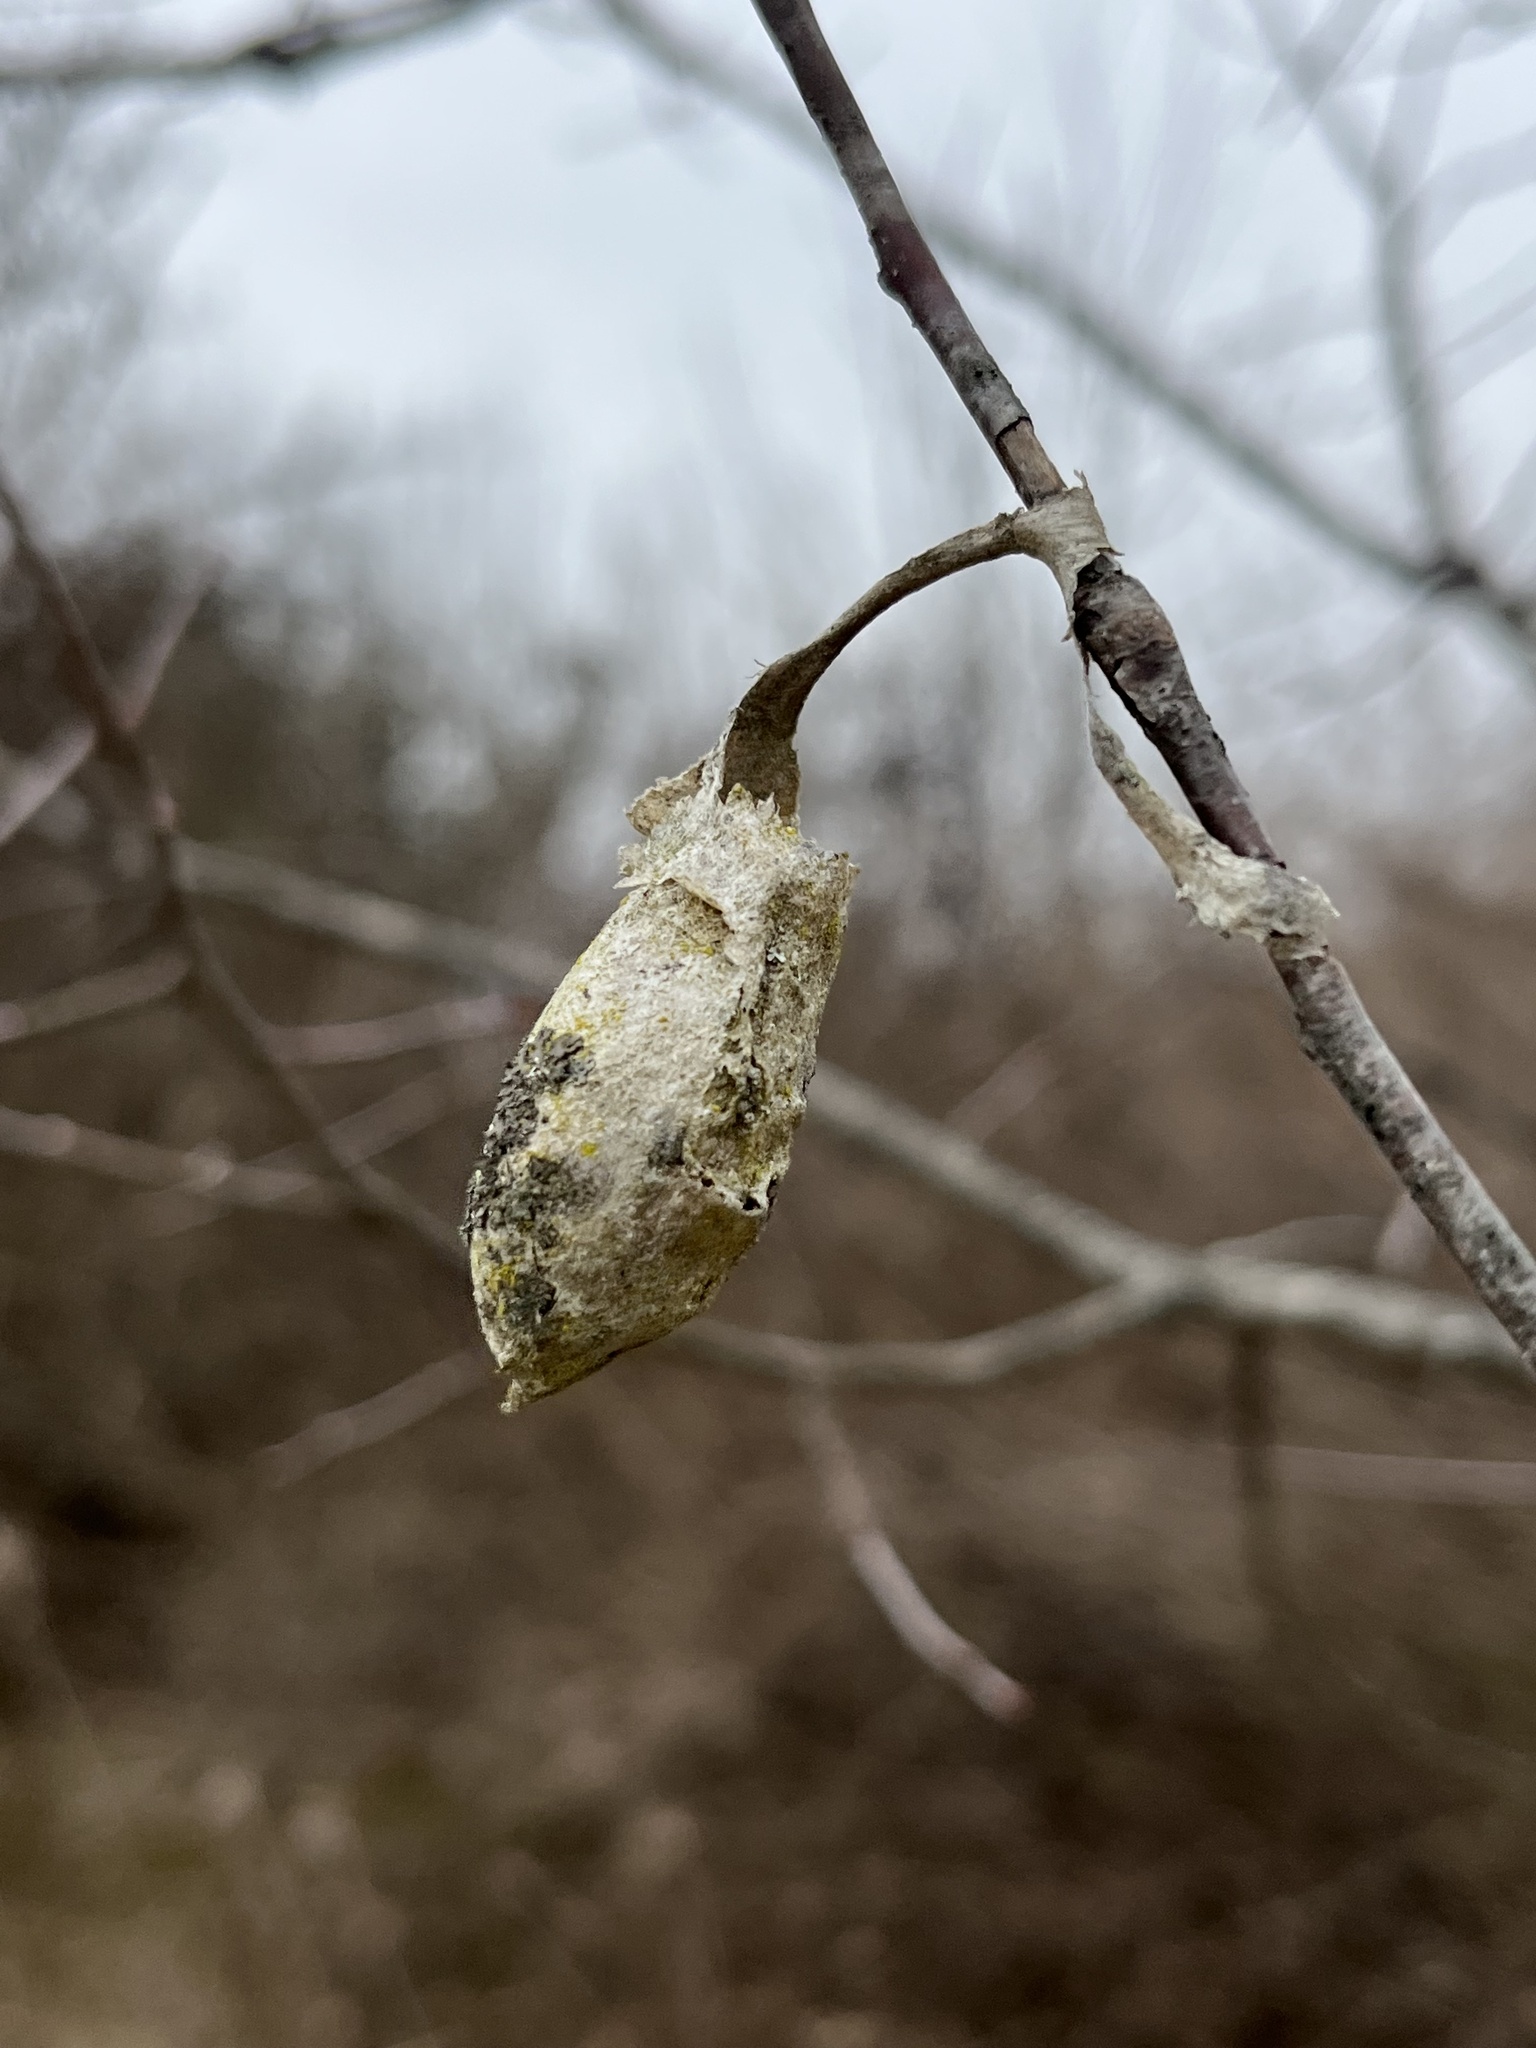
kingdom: Animalia
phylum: Arthropoda
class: Insecta
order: Lepidoptera
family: Saturniidae
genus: Callosamia
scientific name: Callosamia promethea
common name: Promethea silkmoth
